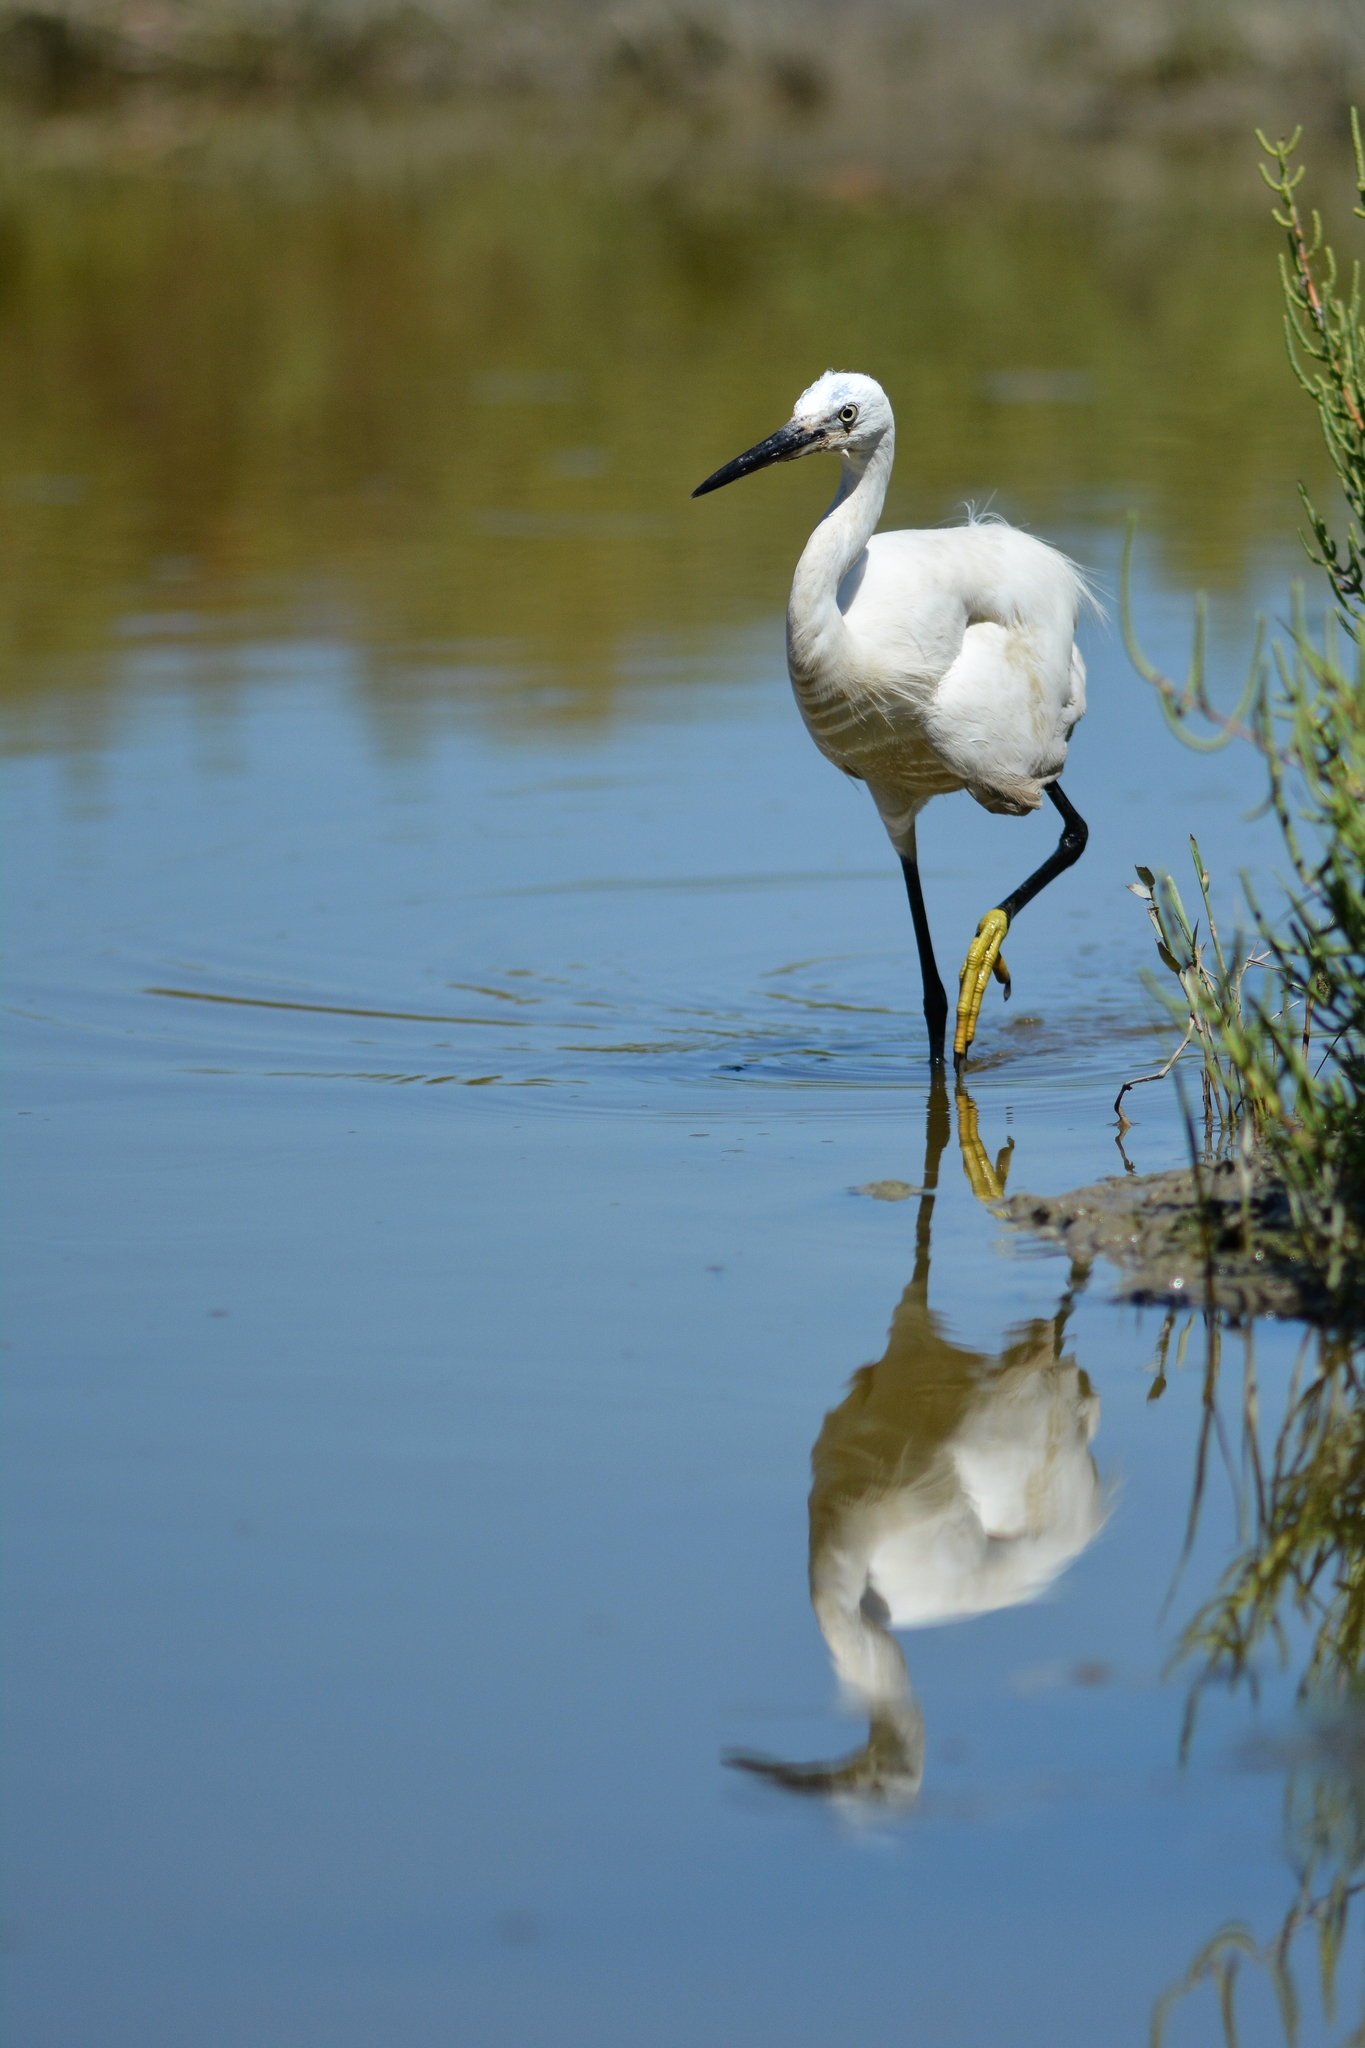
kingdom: Animalia
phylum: Chordata
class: Aves
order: Pelecaniformes
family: Ardeidae
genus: Egretta
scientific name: Egretta garzetta
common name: Little egret
